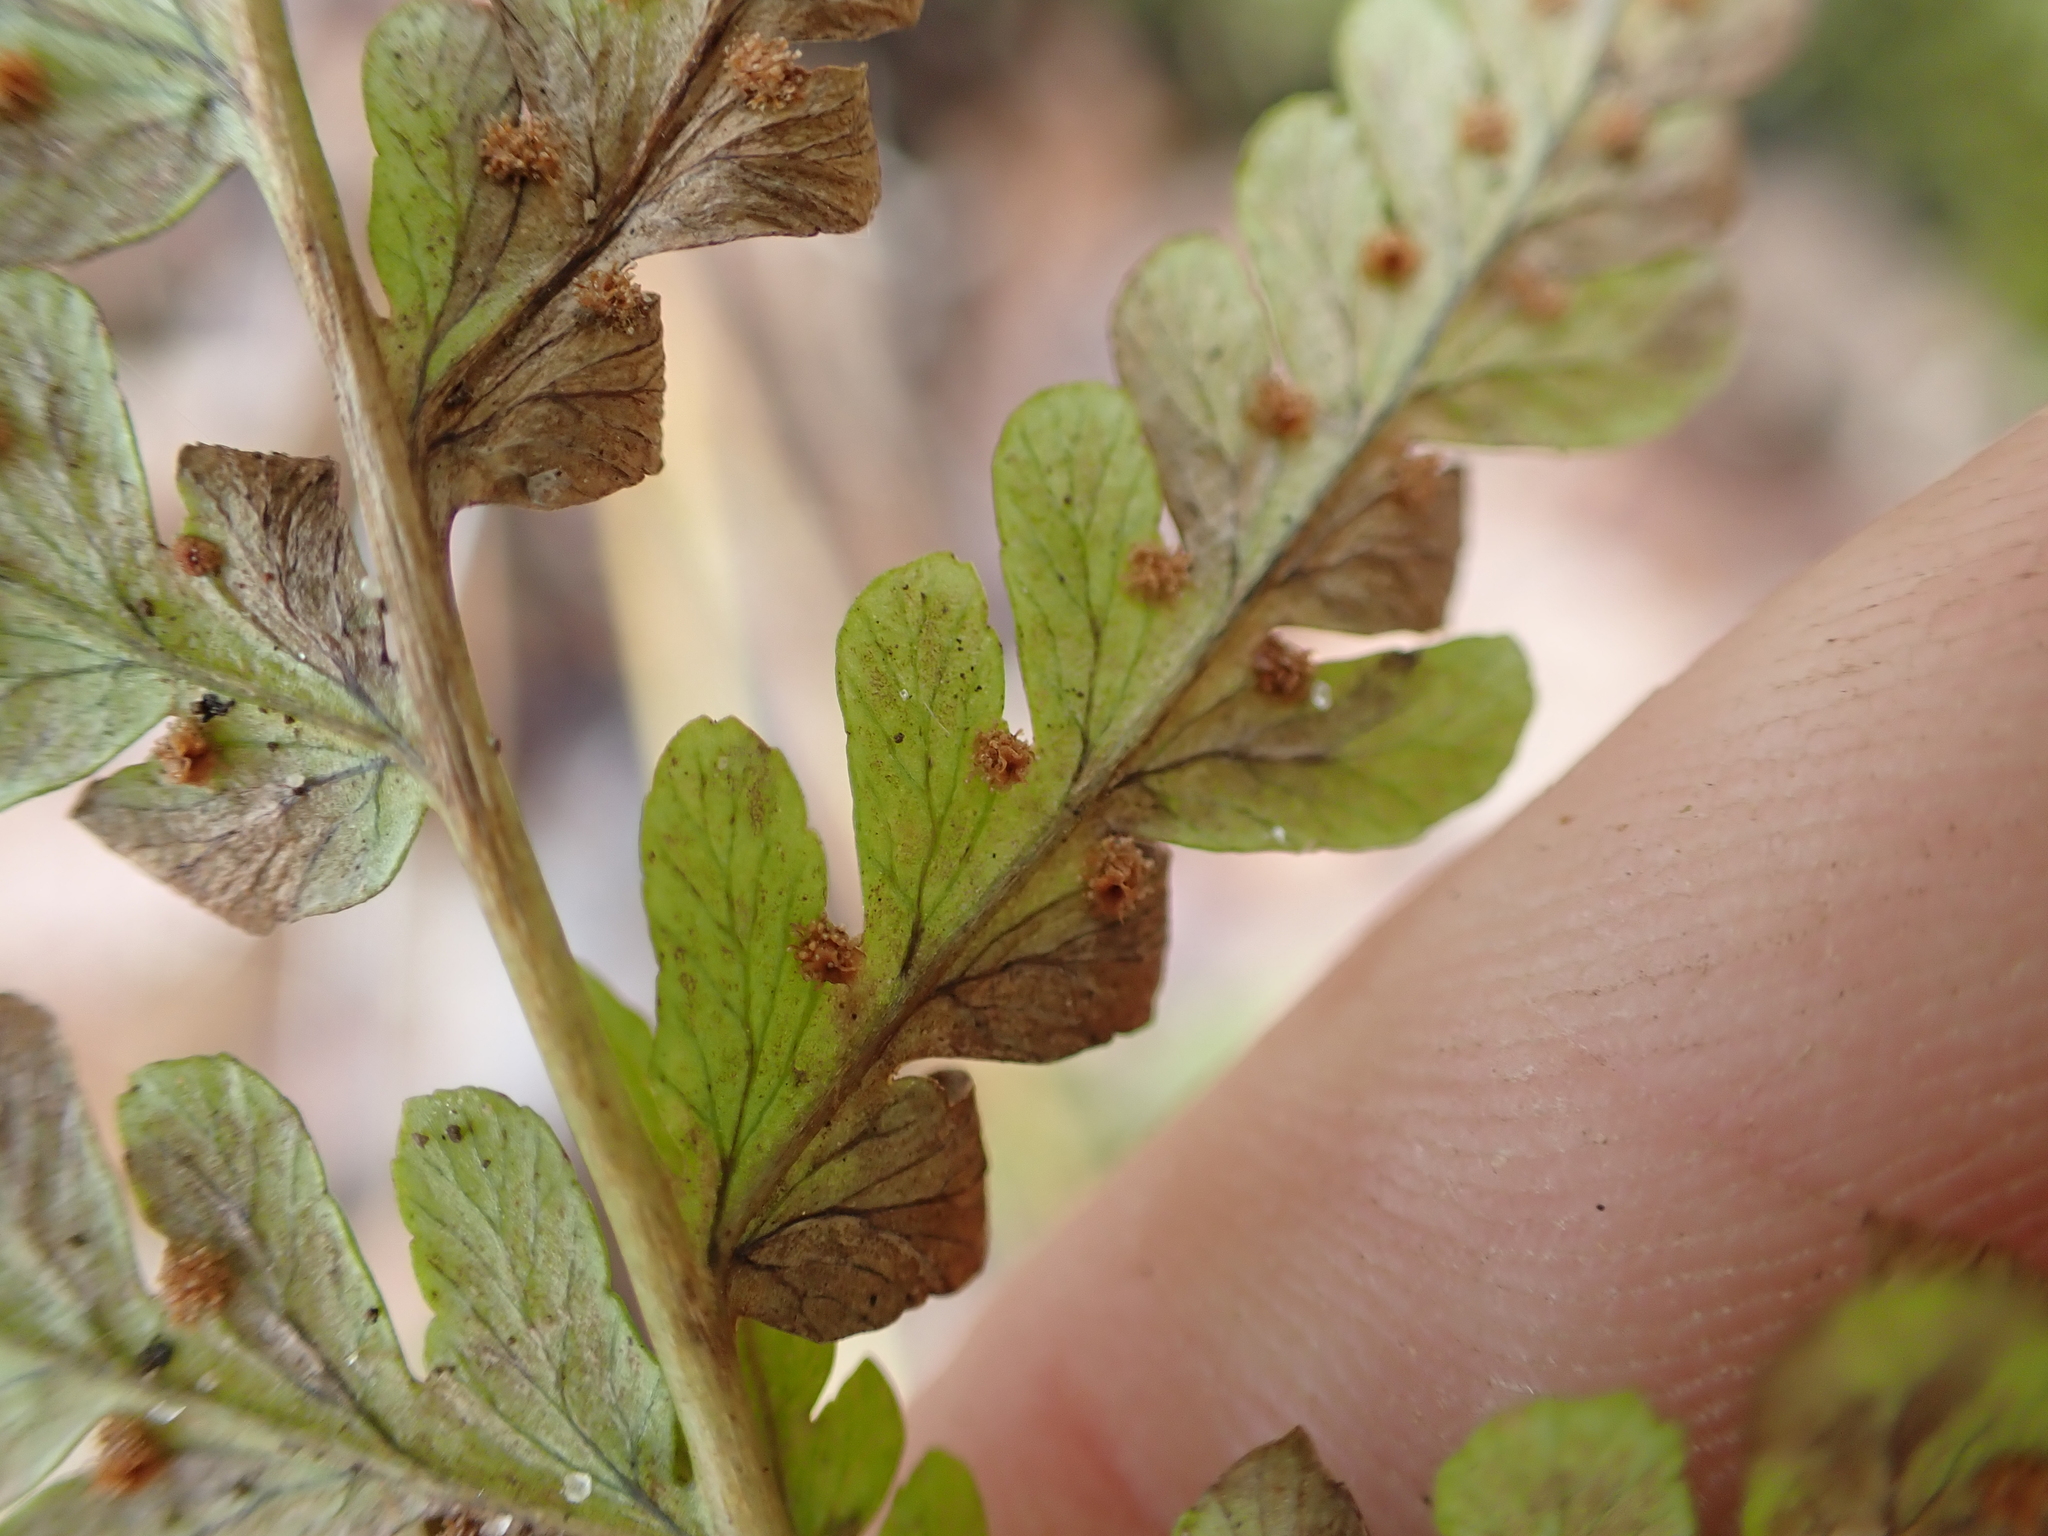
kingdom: Plantae
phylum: Tracheophyta
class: Polypodiopsida
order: Polypodiales
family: Dryopteridaceae
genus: Dryopteris
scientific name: Dryopteris marginalis
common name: Marginal wood fern
